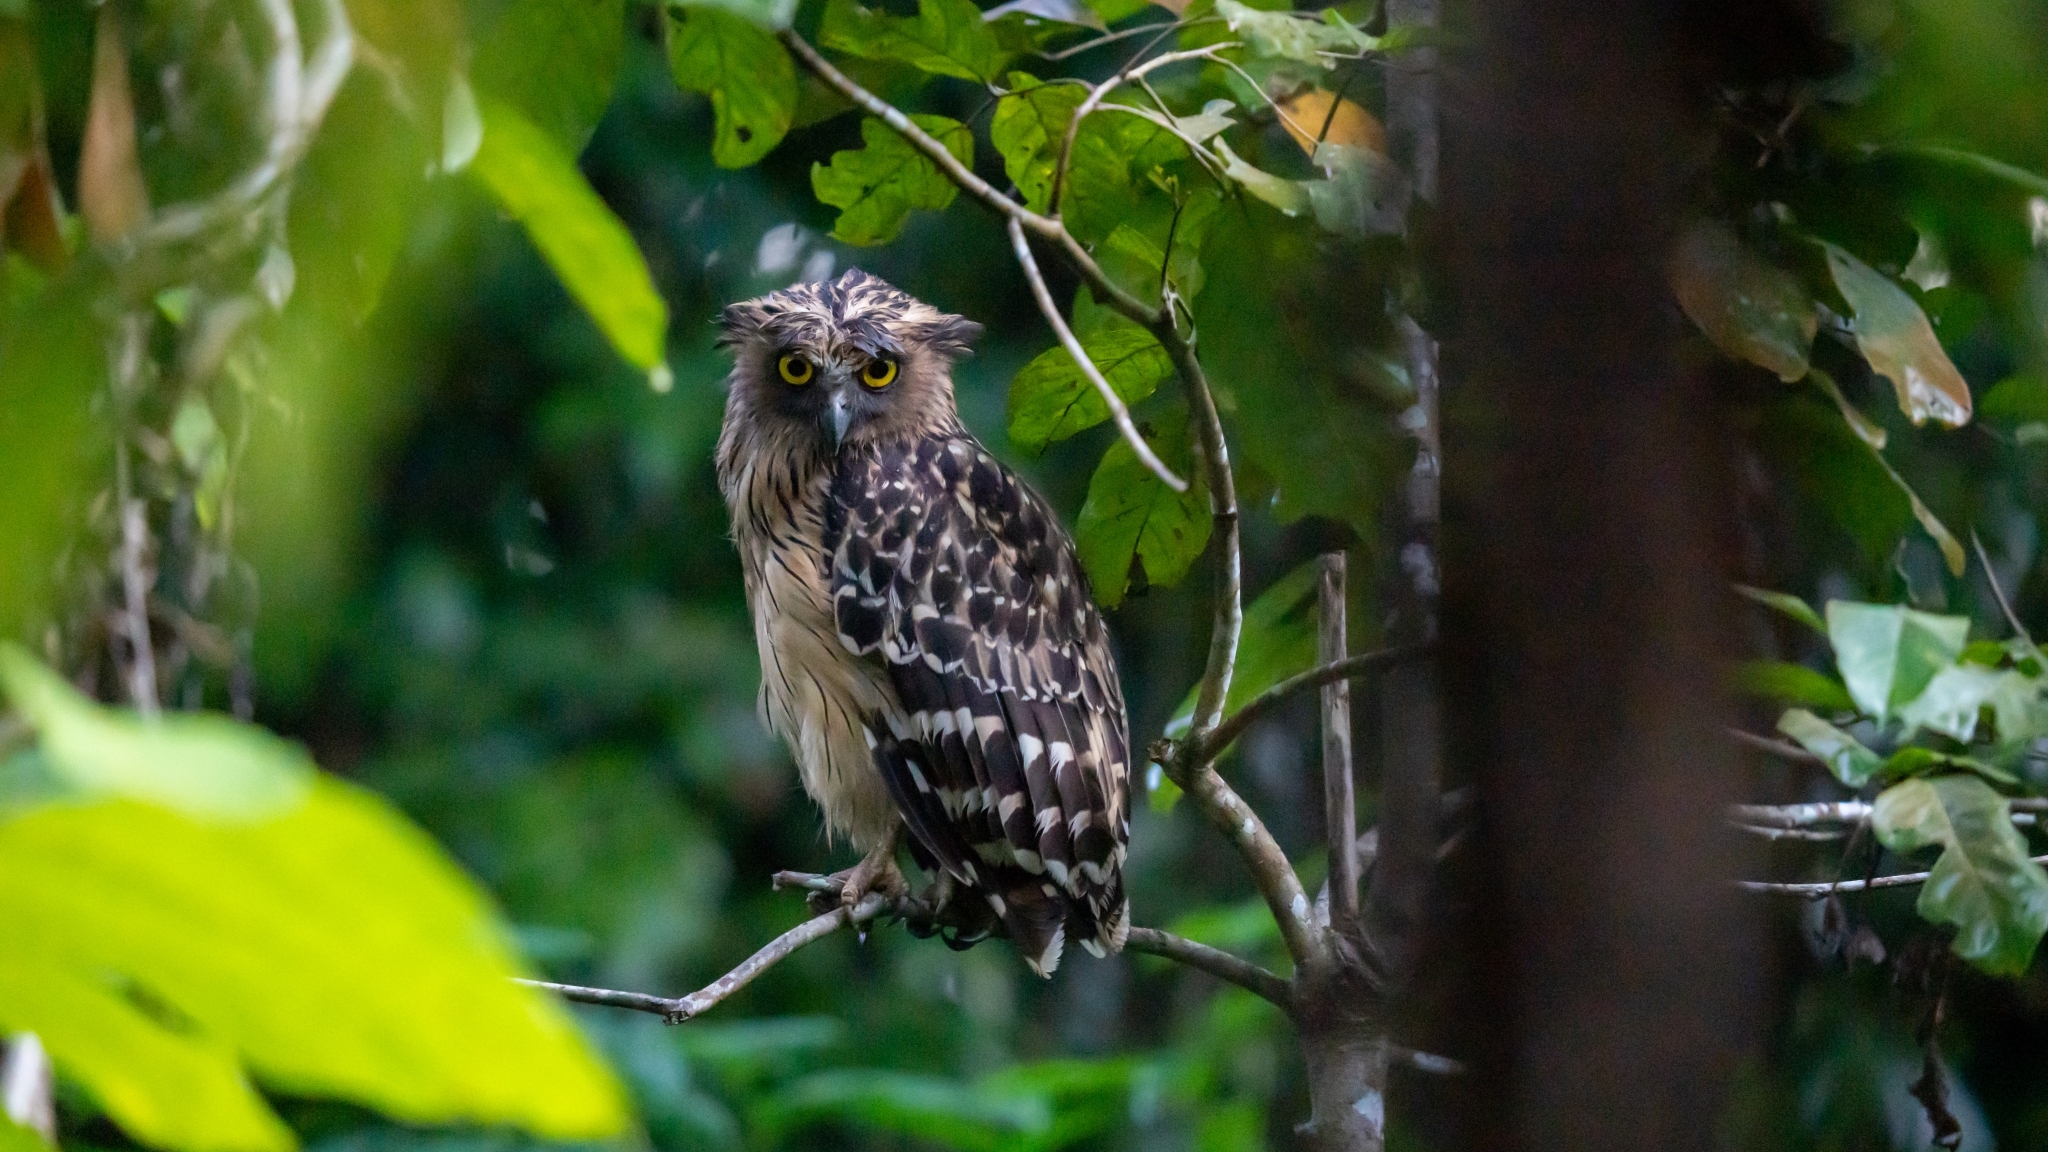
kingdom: Animalia
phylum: Chordata
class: Aves
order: Strigiformes
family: Strigidae
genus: Ketupa
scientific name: Ketupa ketupu
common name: Buffy fish-owl
